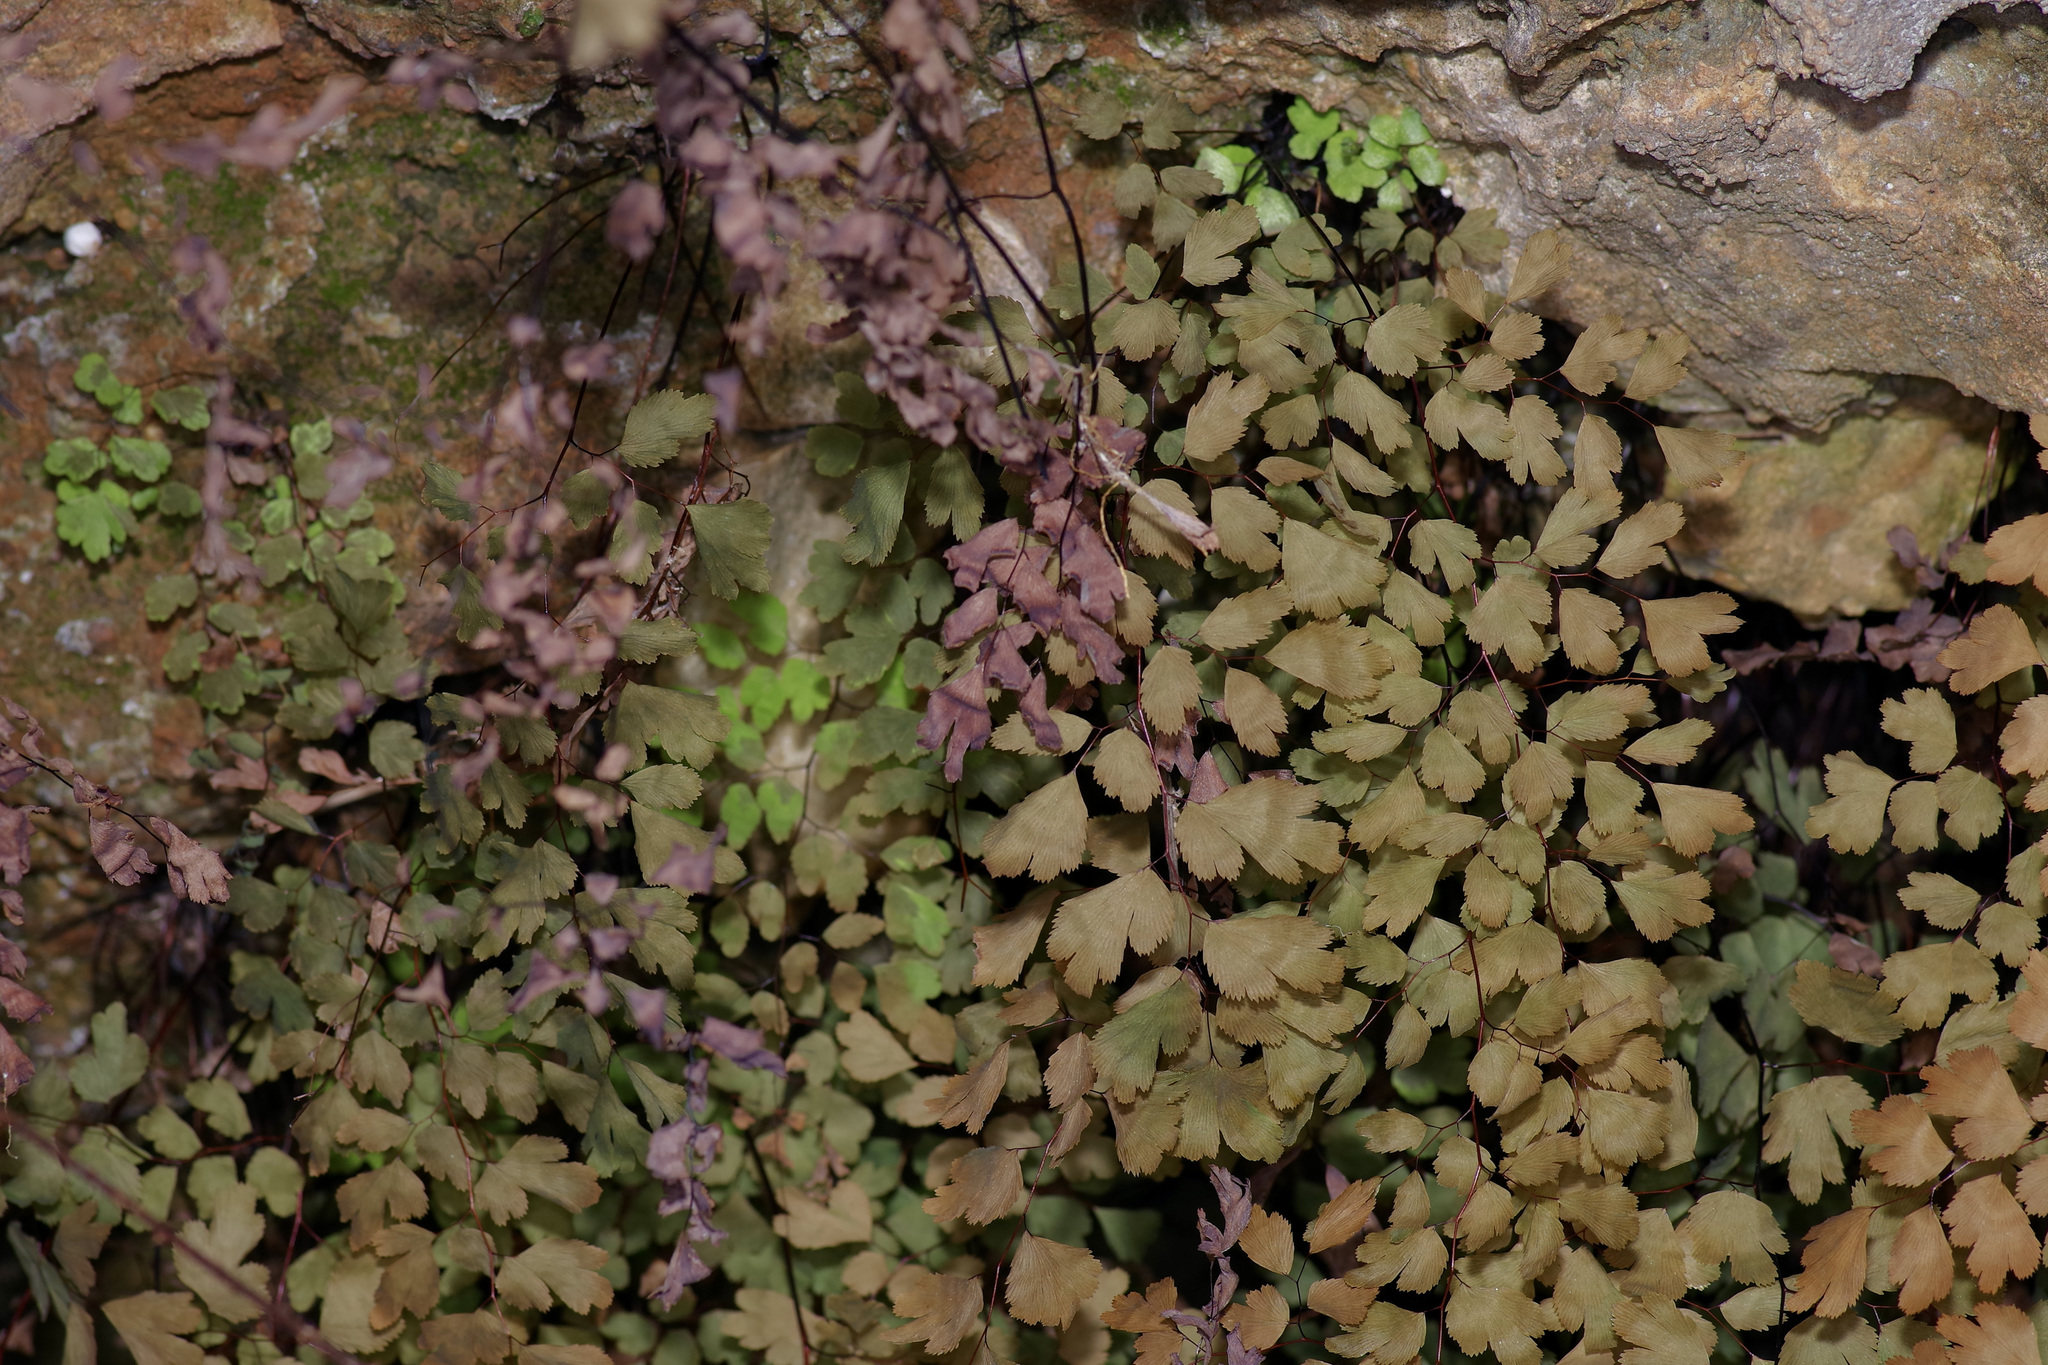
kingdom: Plantae
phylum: Tracheophyta
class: Polypodiopsida
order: Polypodiales
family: Pteridaceae
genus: Adiantum
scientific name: Adiantum capillus-veneris
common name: Maidenhair fern
